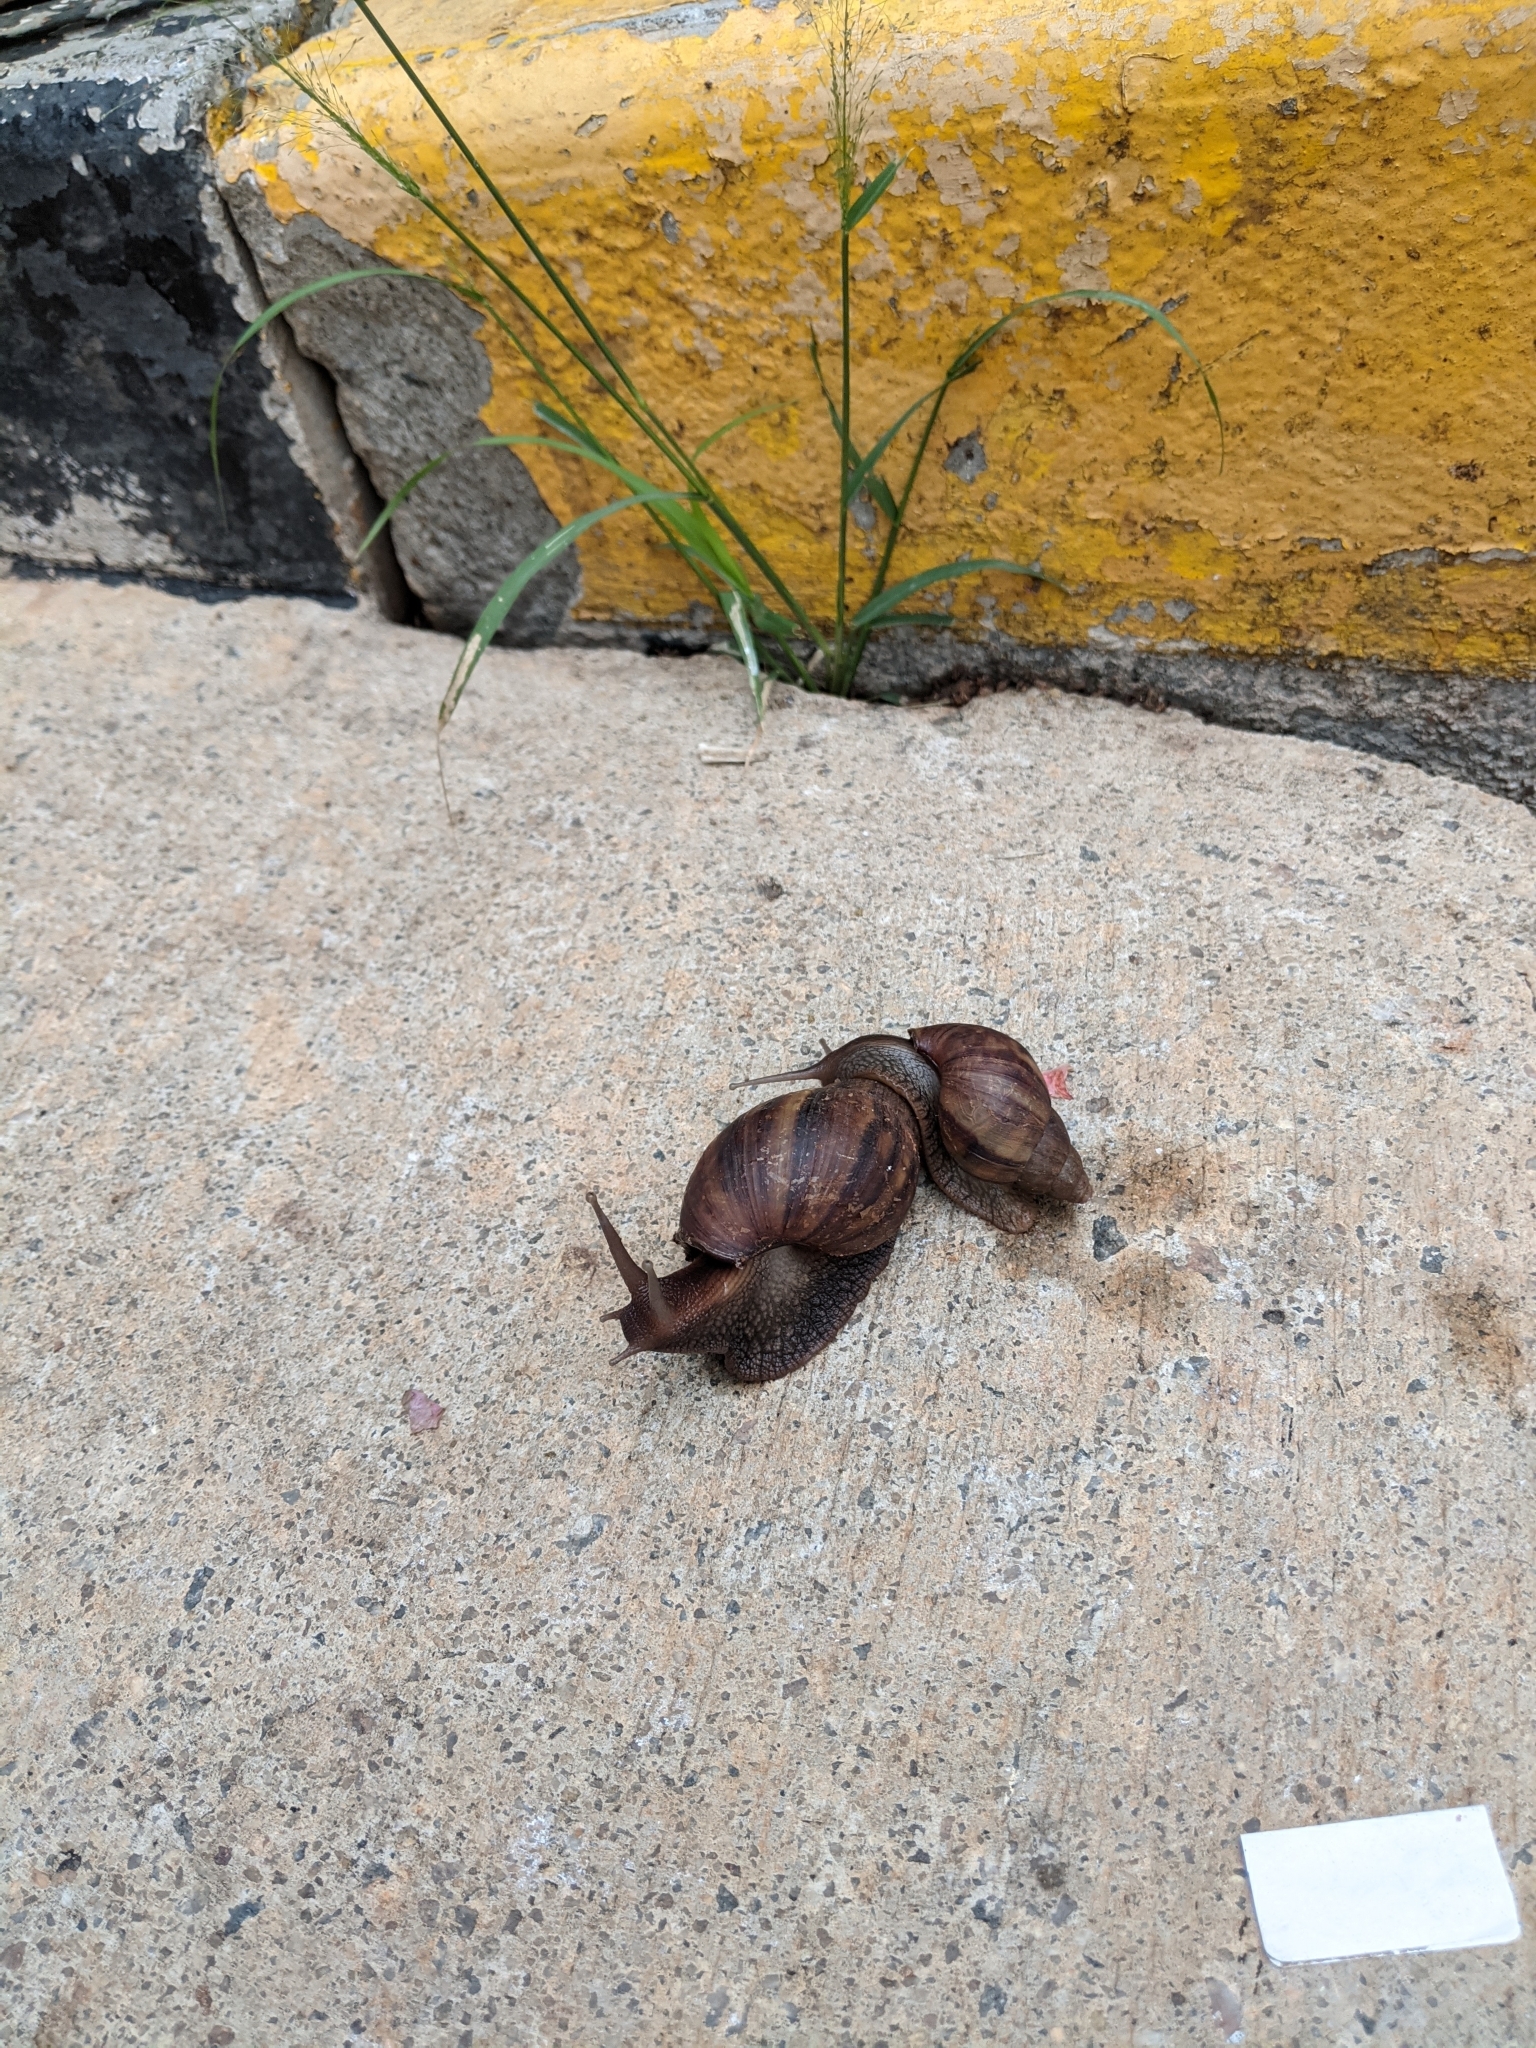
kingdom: Animalia
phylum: Mollusca
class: Gastropoda
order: Stylommatophora
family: Achatinidae
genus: Lissachatina
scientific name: Lissachatina fulica
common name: Giant african snail
